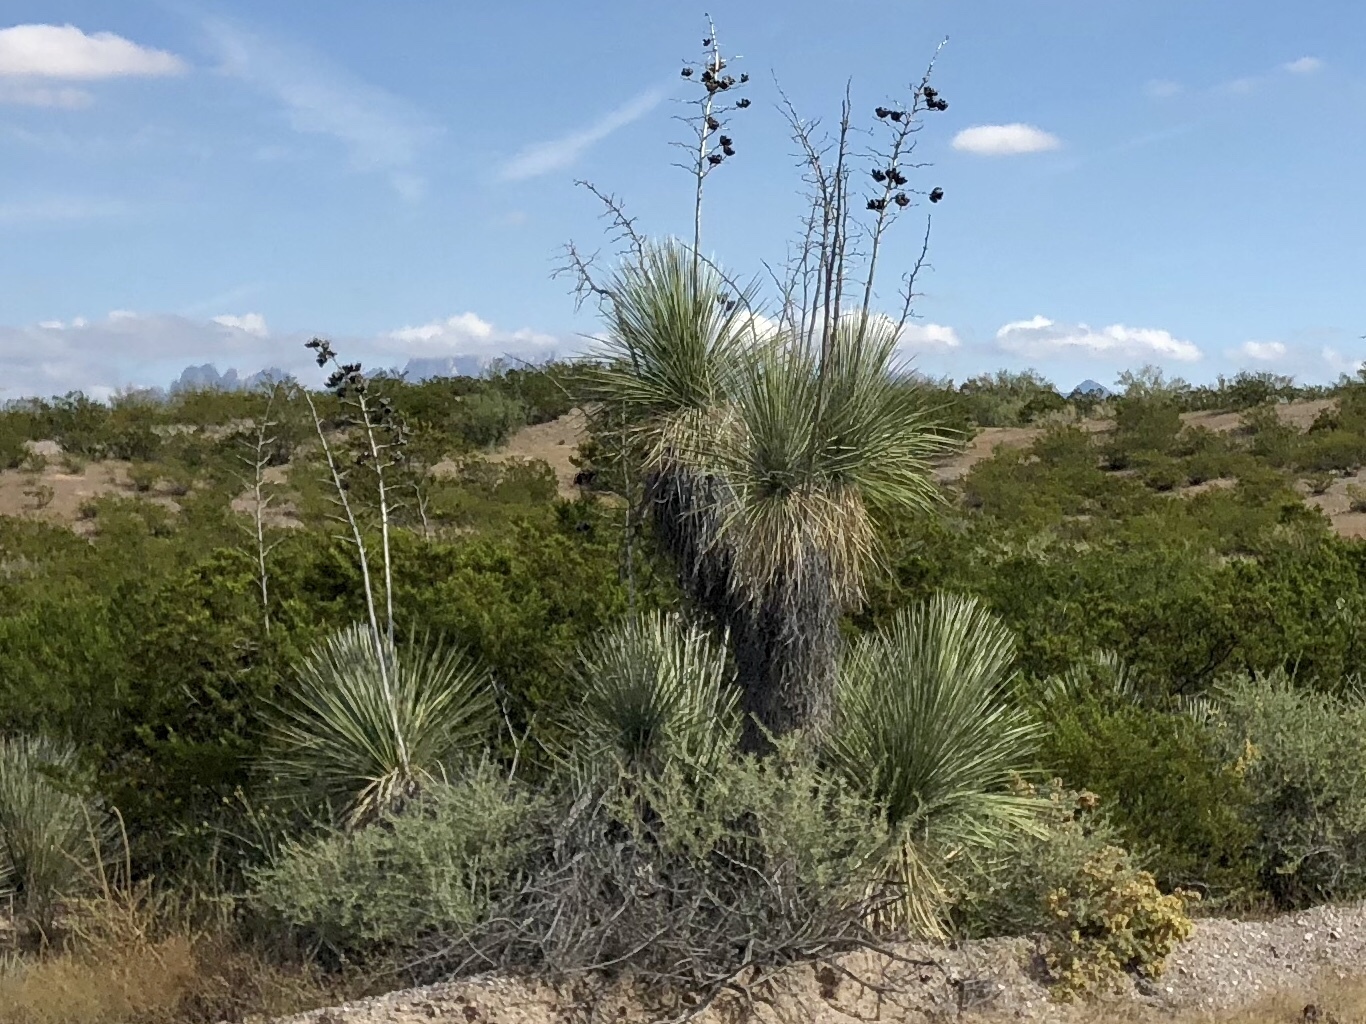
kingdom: Plantae
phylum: Tracheophyta
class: Liliopsida
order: Asparagales
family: Asparagaceae
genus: Yucca
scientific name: Yucca elata
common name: Palmella
